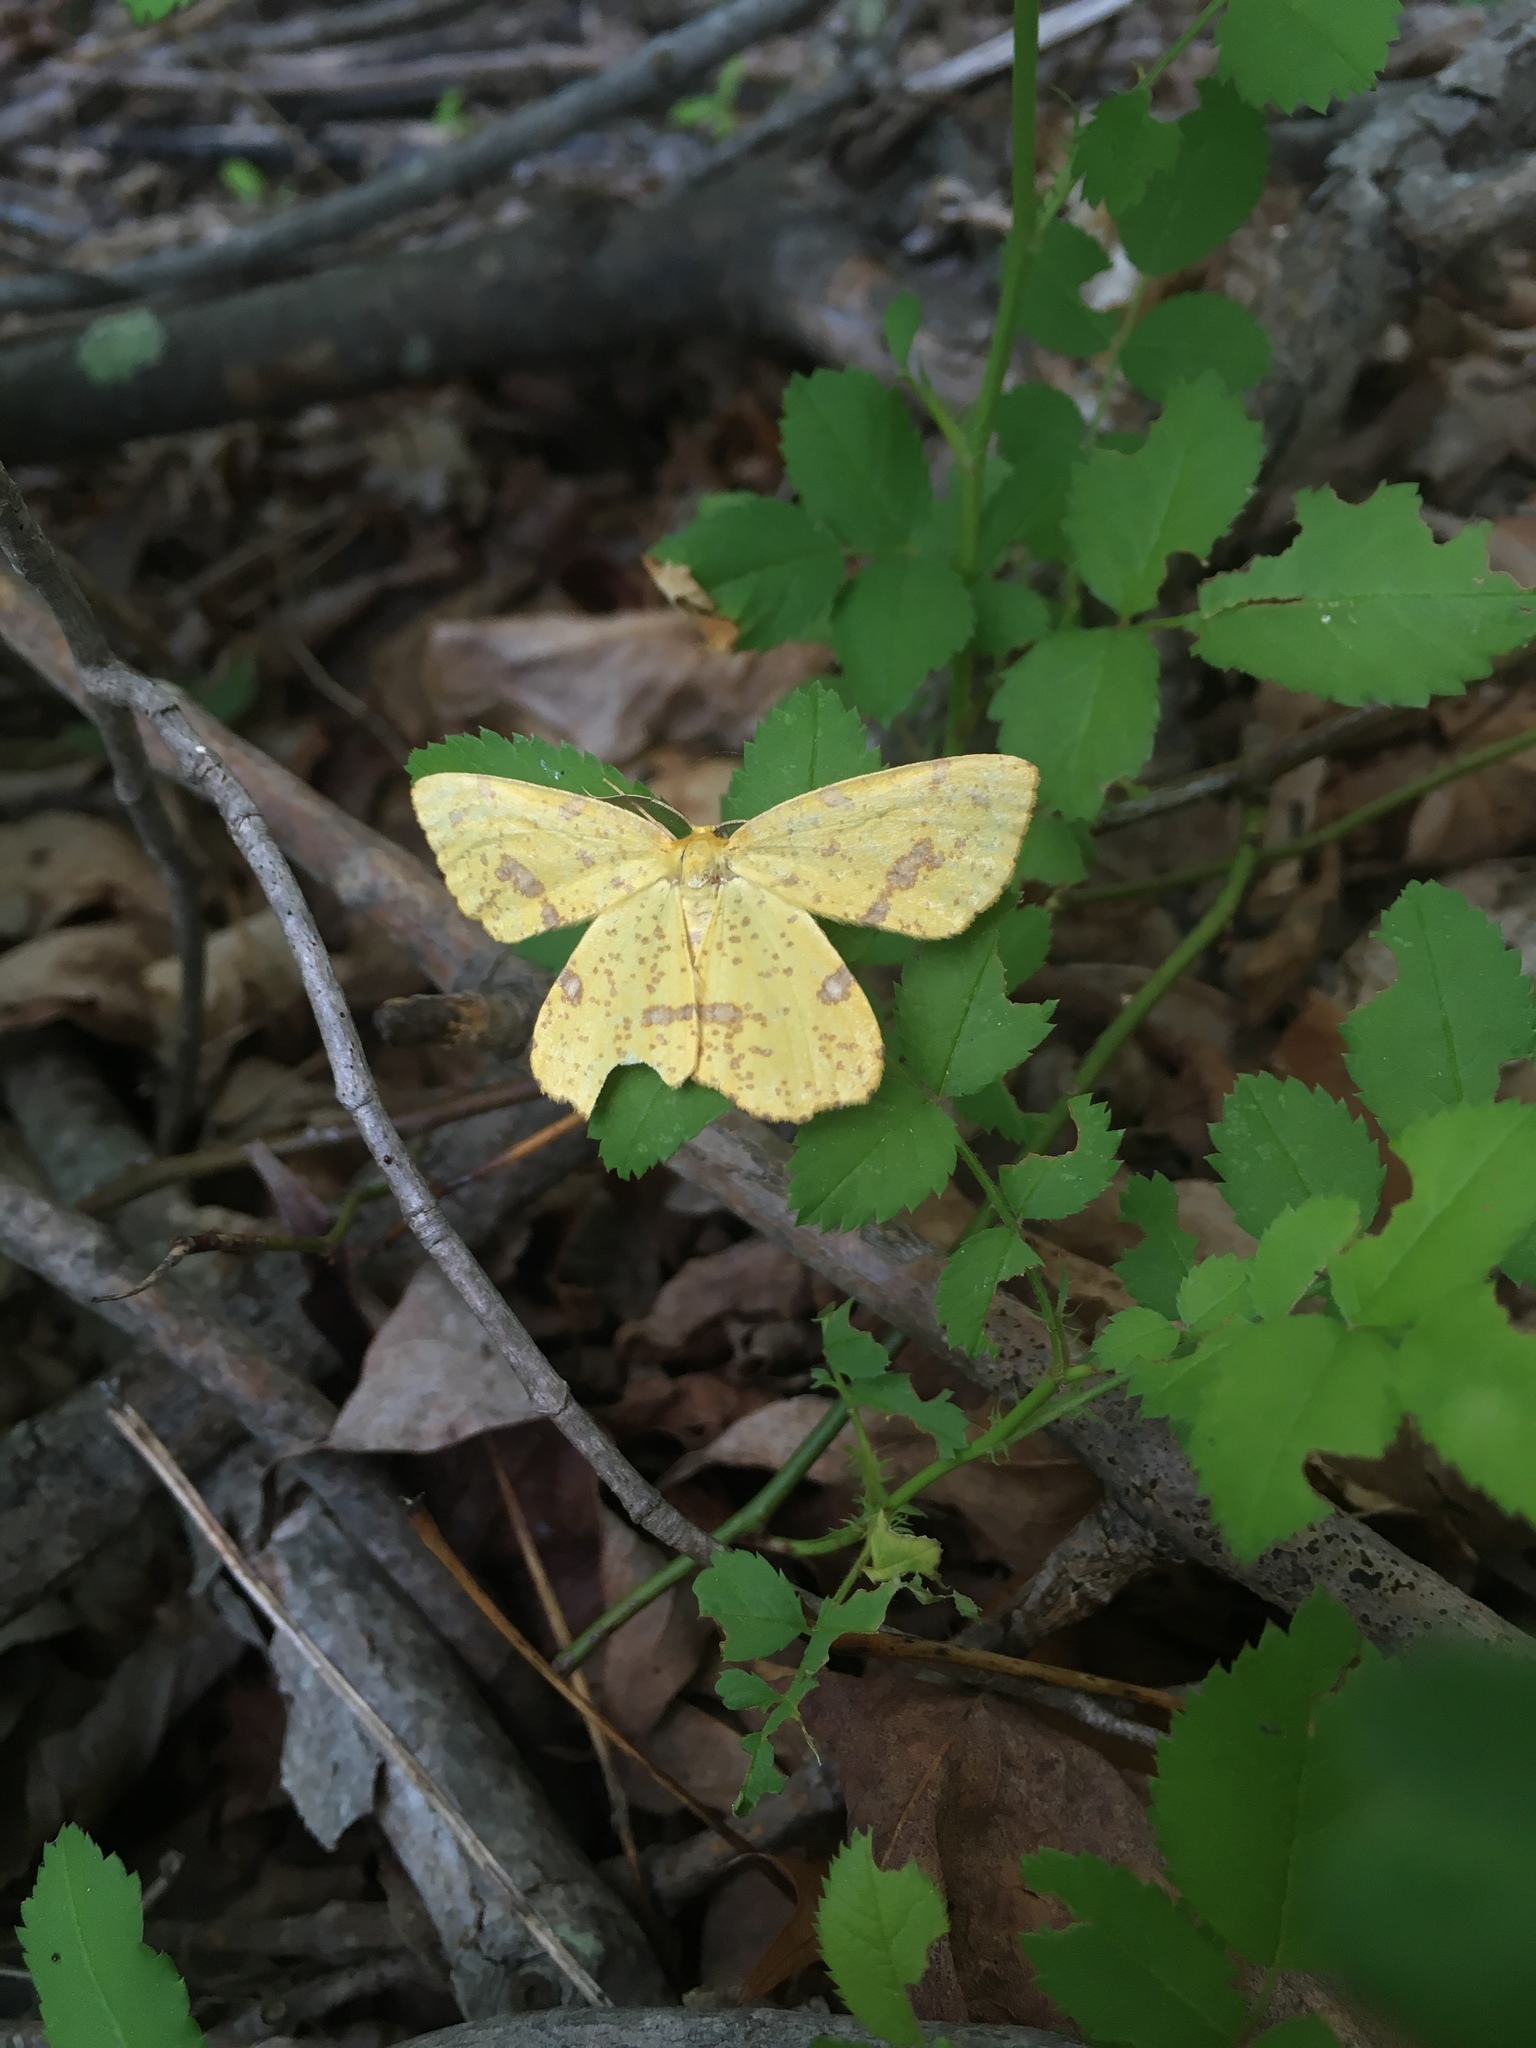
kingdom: Animalia
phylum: Arthropoda
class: Insecta
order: Lepidoptera
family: Geometridae
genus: Xanthotype
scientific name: Xanthotype
